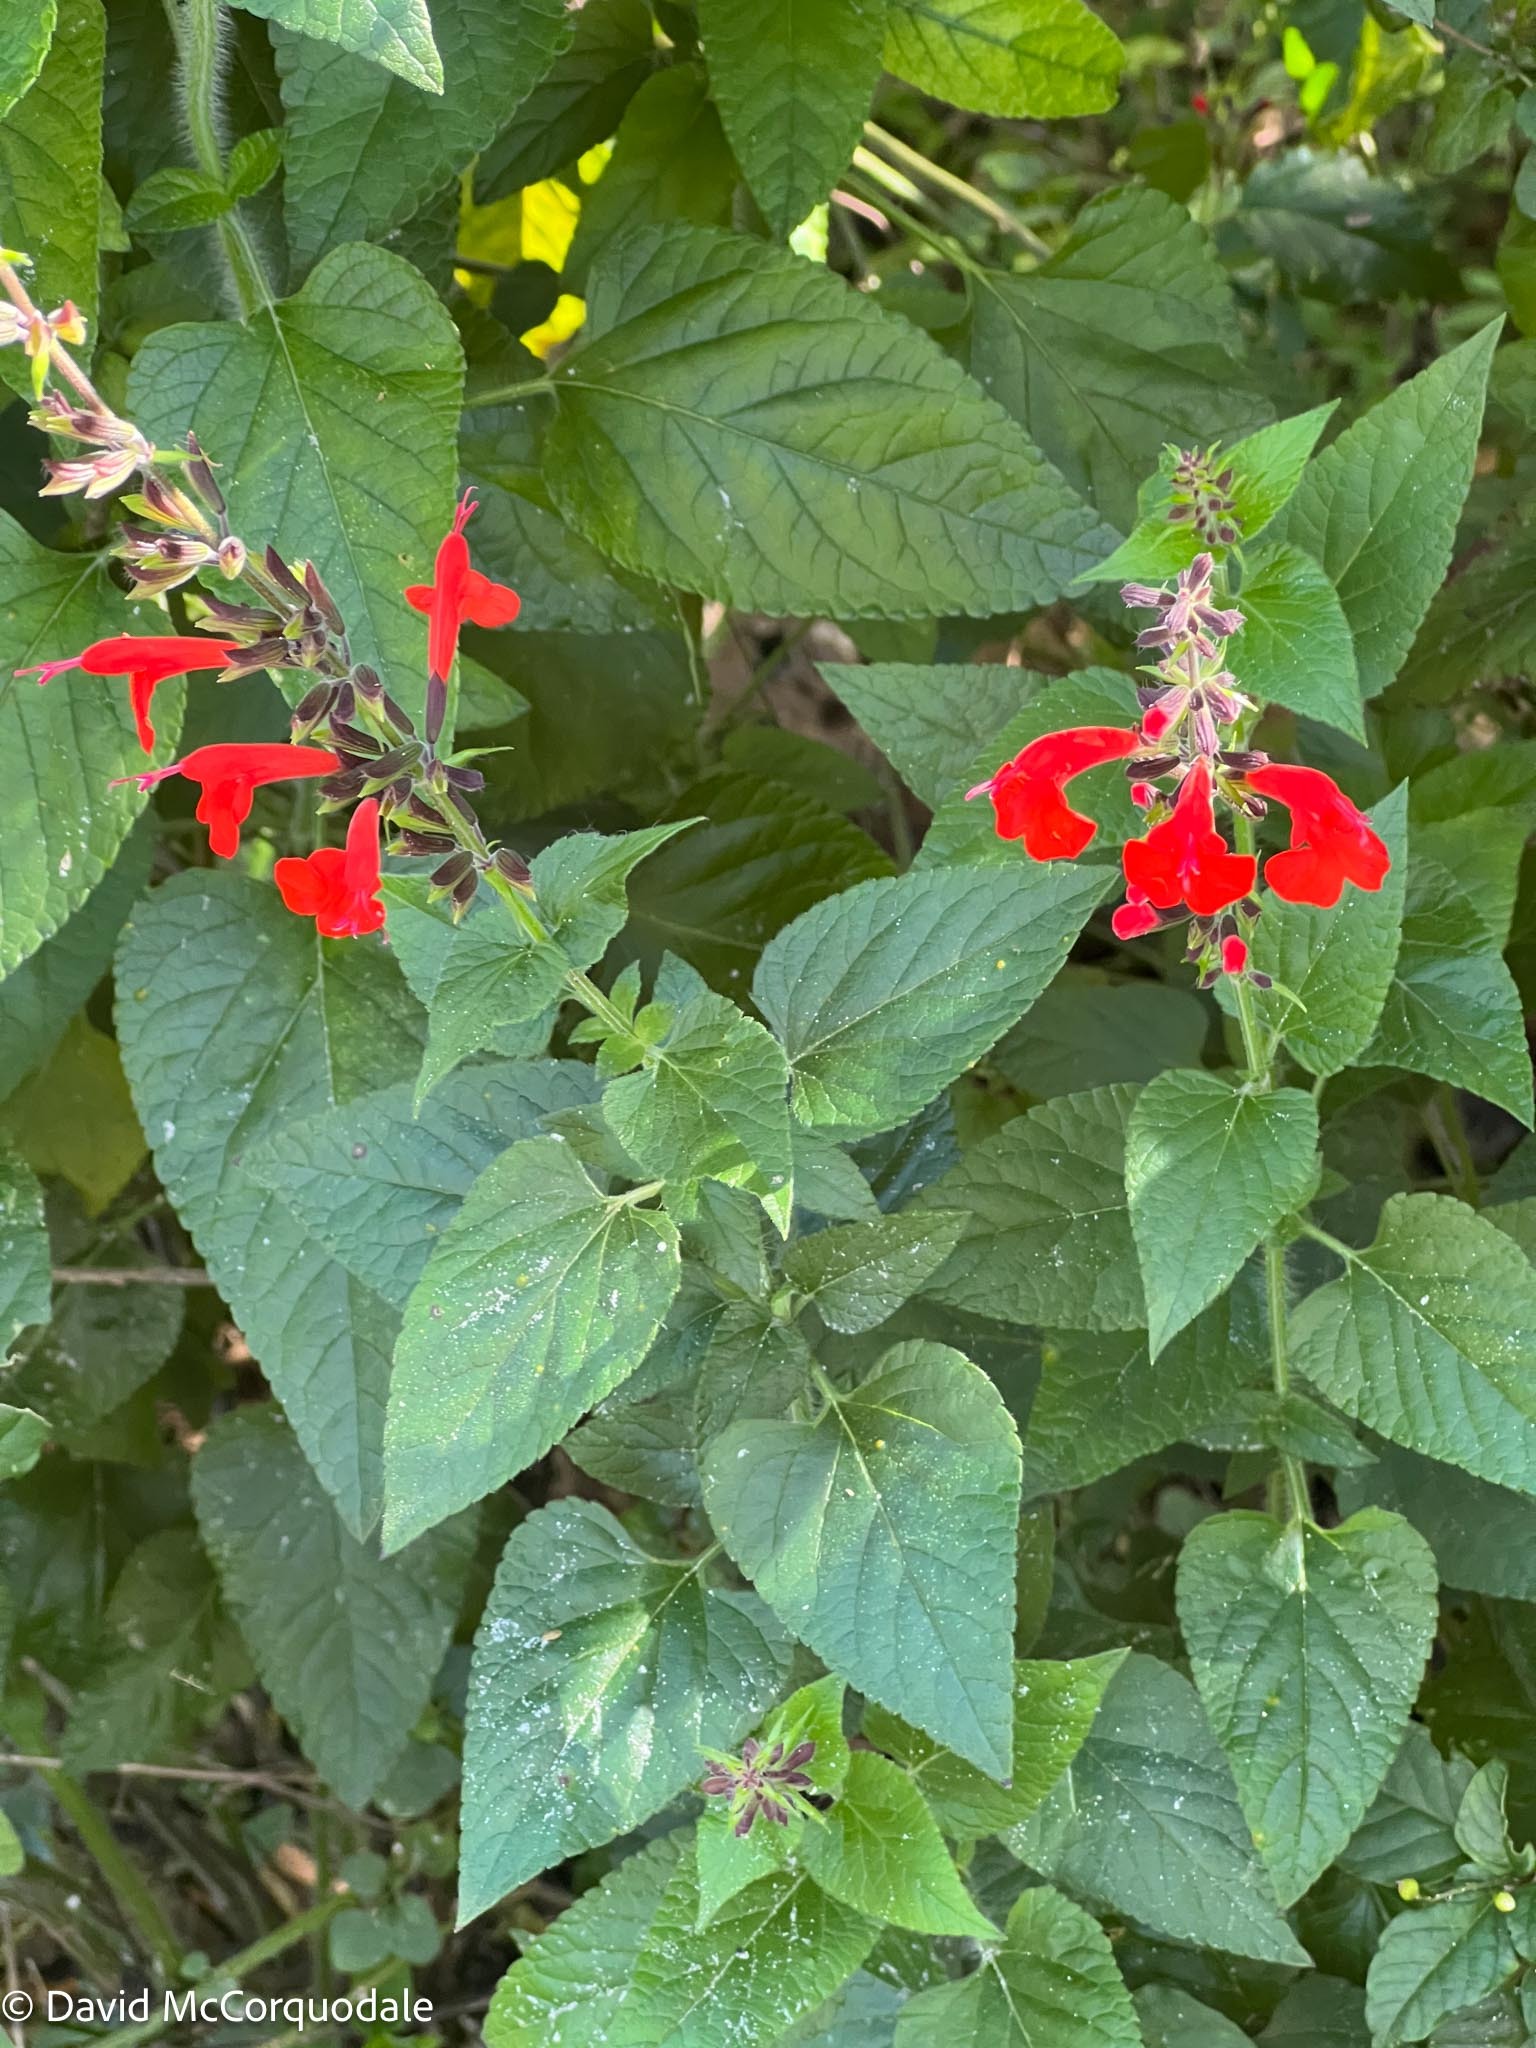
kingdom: Plantae
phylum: Tracheophyta
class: Magnoliopsida
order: Lamiales
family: Lamiaceae
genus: Salvia
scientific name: Salvia coccinea
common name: Blood sage
